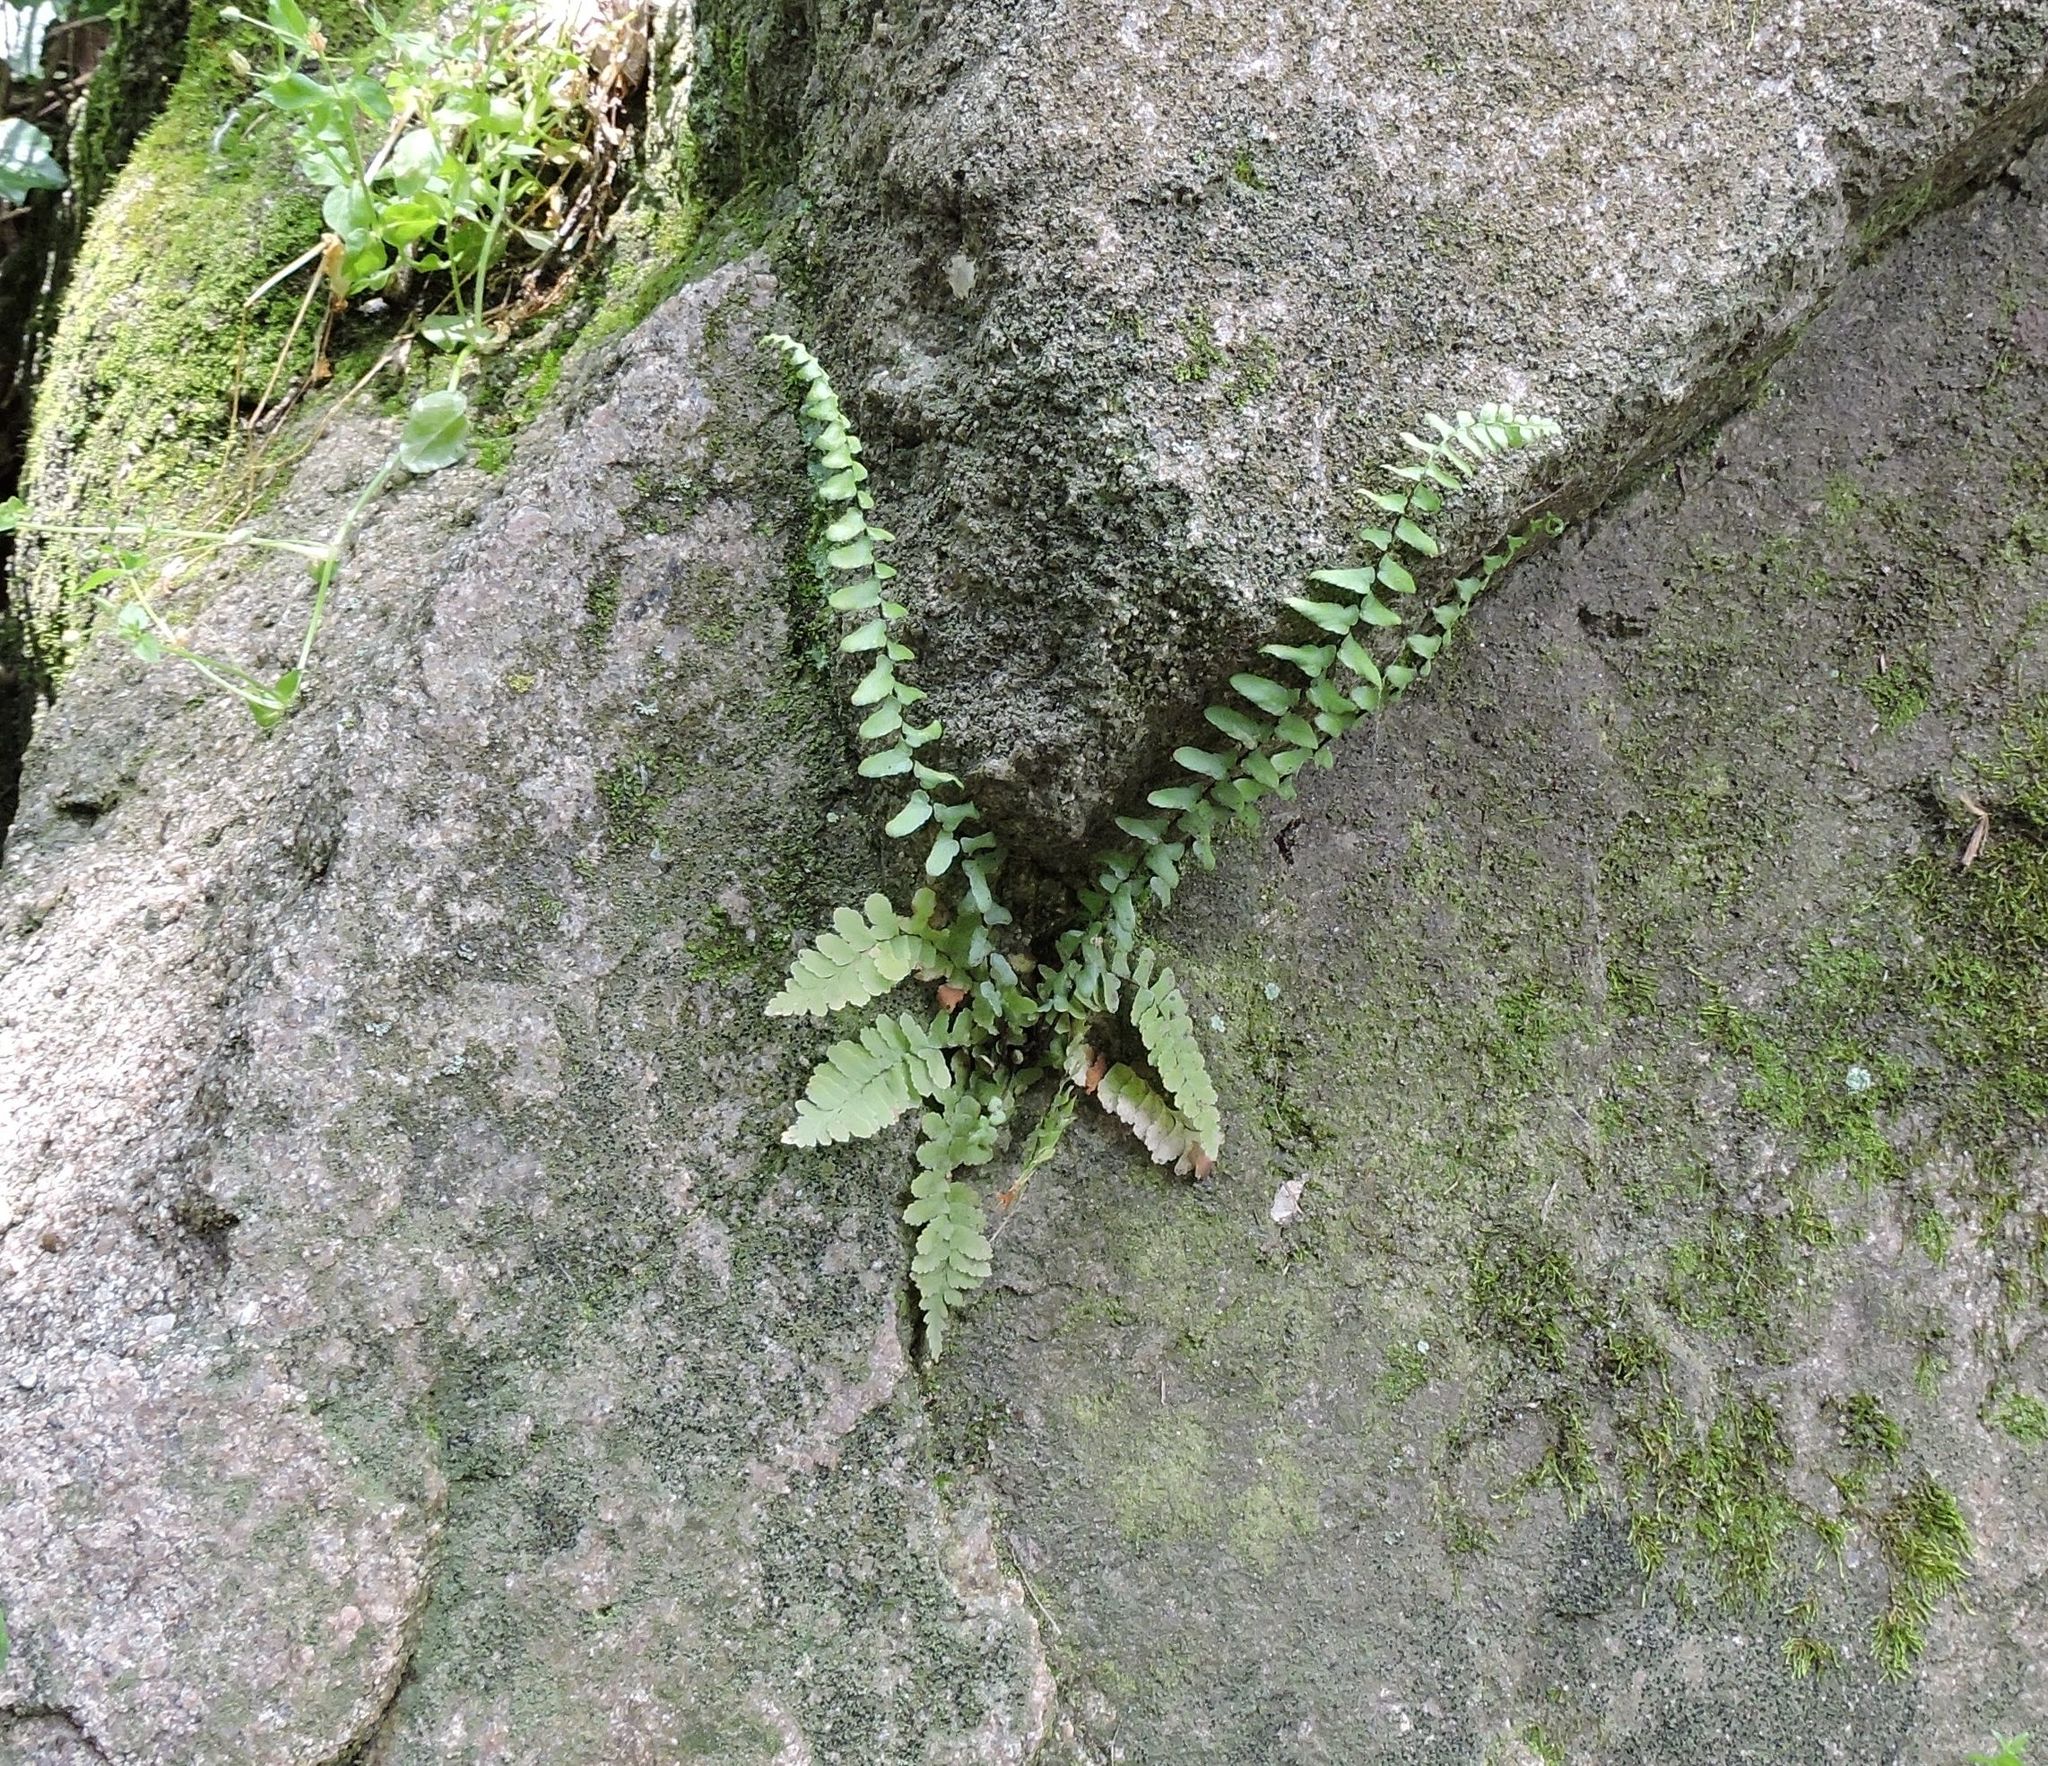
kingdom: Plantae
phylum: Tracheophyta
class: Polypodiopsida
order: Polypodiales
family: Aspleniaceae
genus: Asplenium
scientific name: Asplenium platyneuron
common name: Ebony spleenwort
